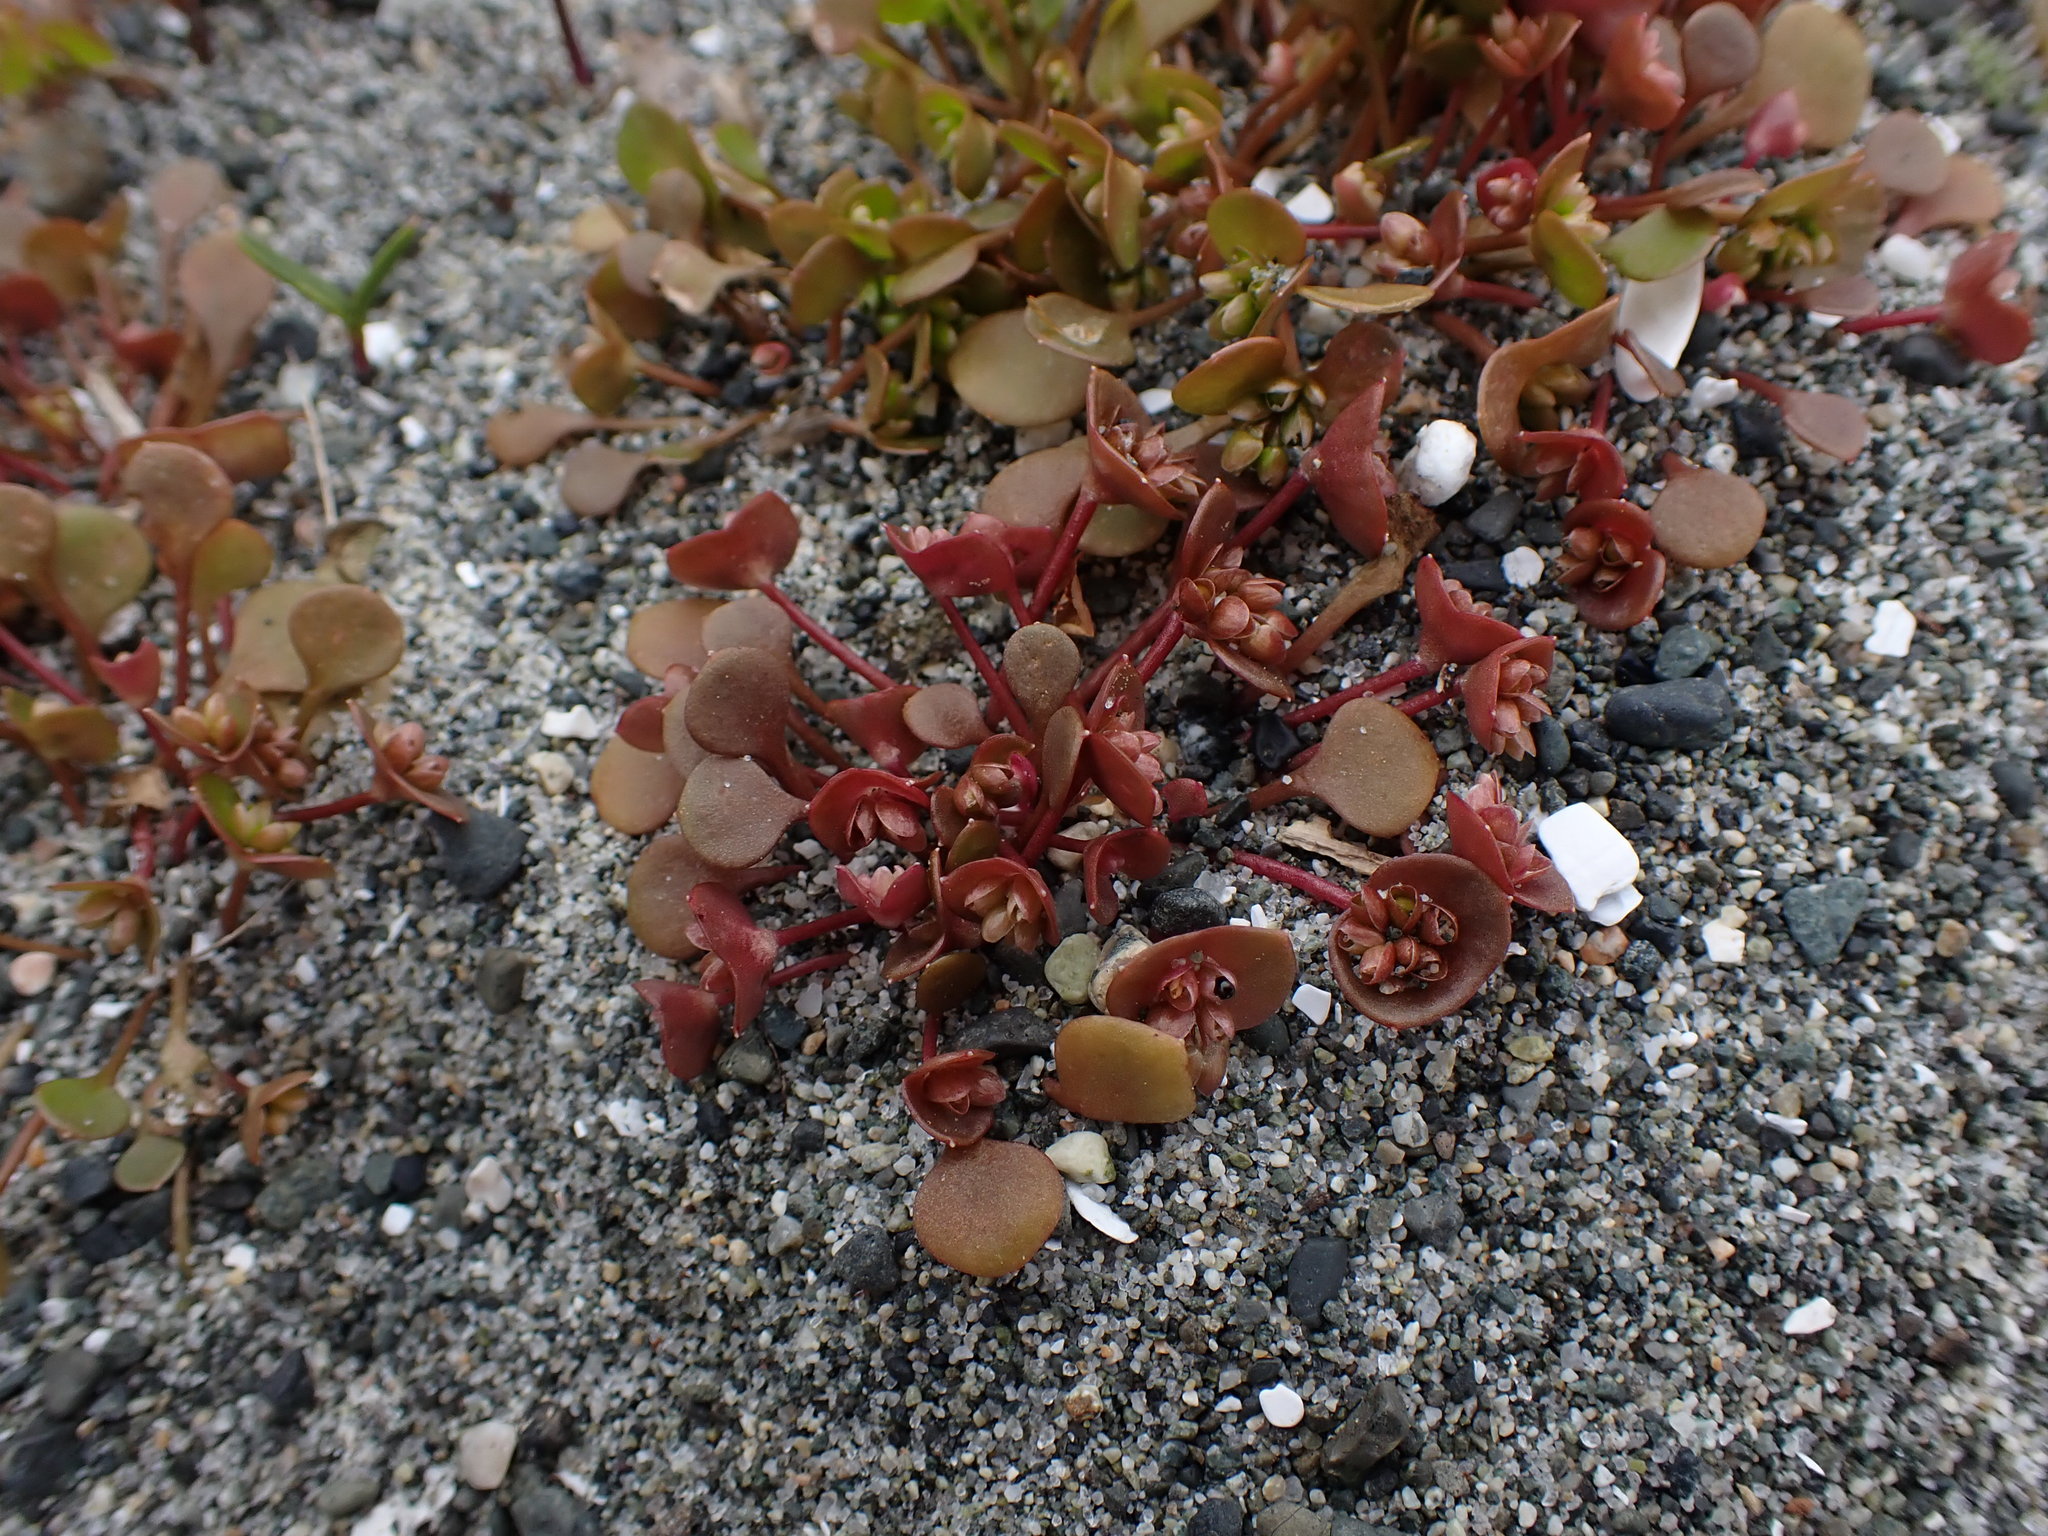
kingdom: Plantae
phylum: Tracheophyta
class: Magnoliopsida
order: Caryophyllales
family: Montiaceae
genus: Claytonia
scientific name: Claytonia rubra
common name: Erubescent miner's-lettuce
